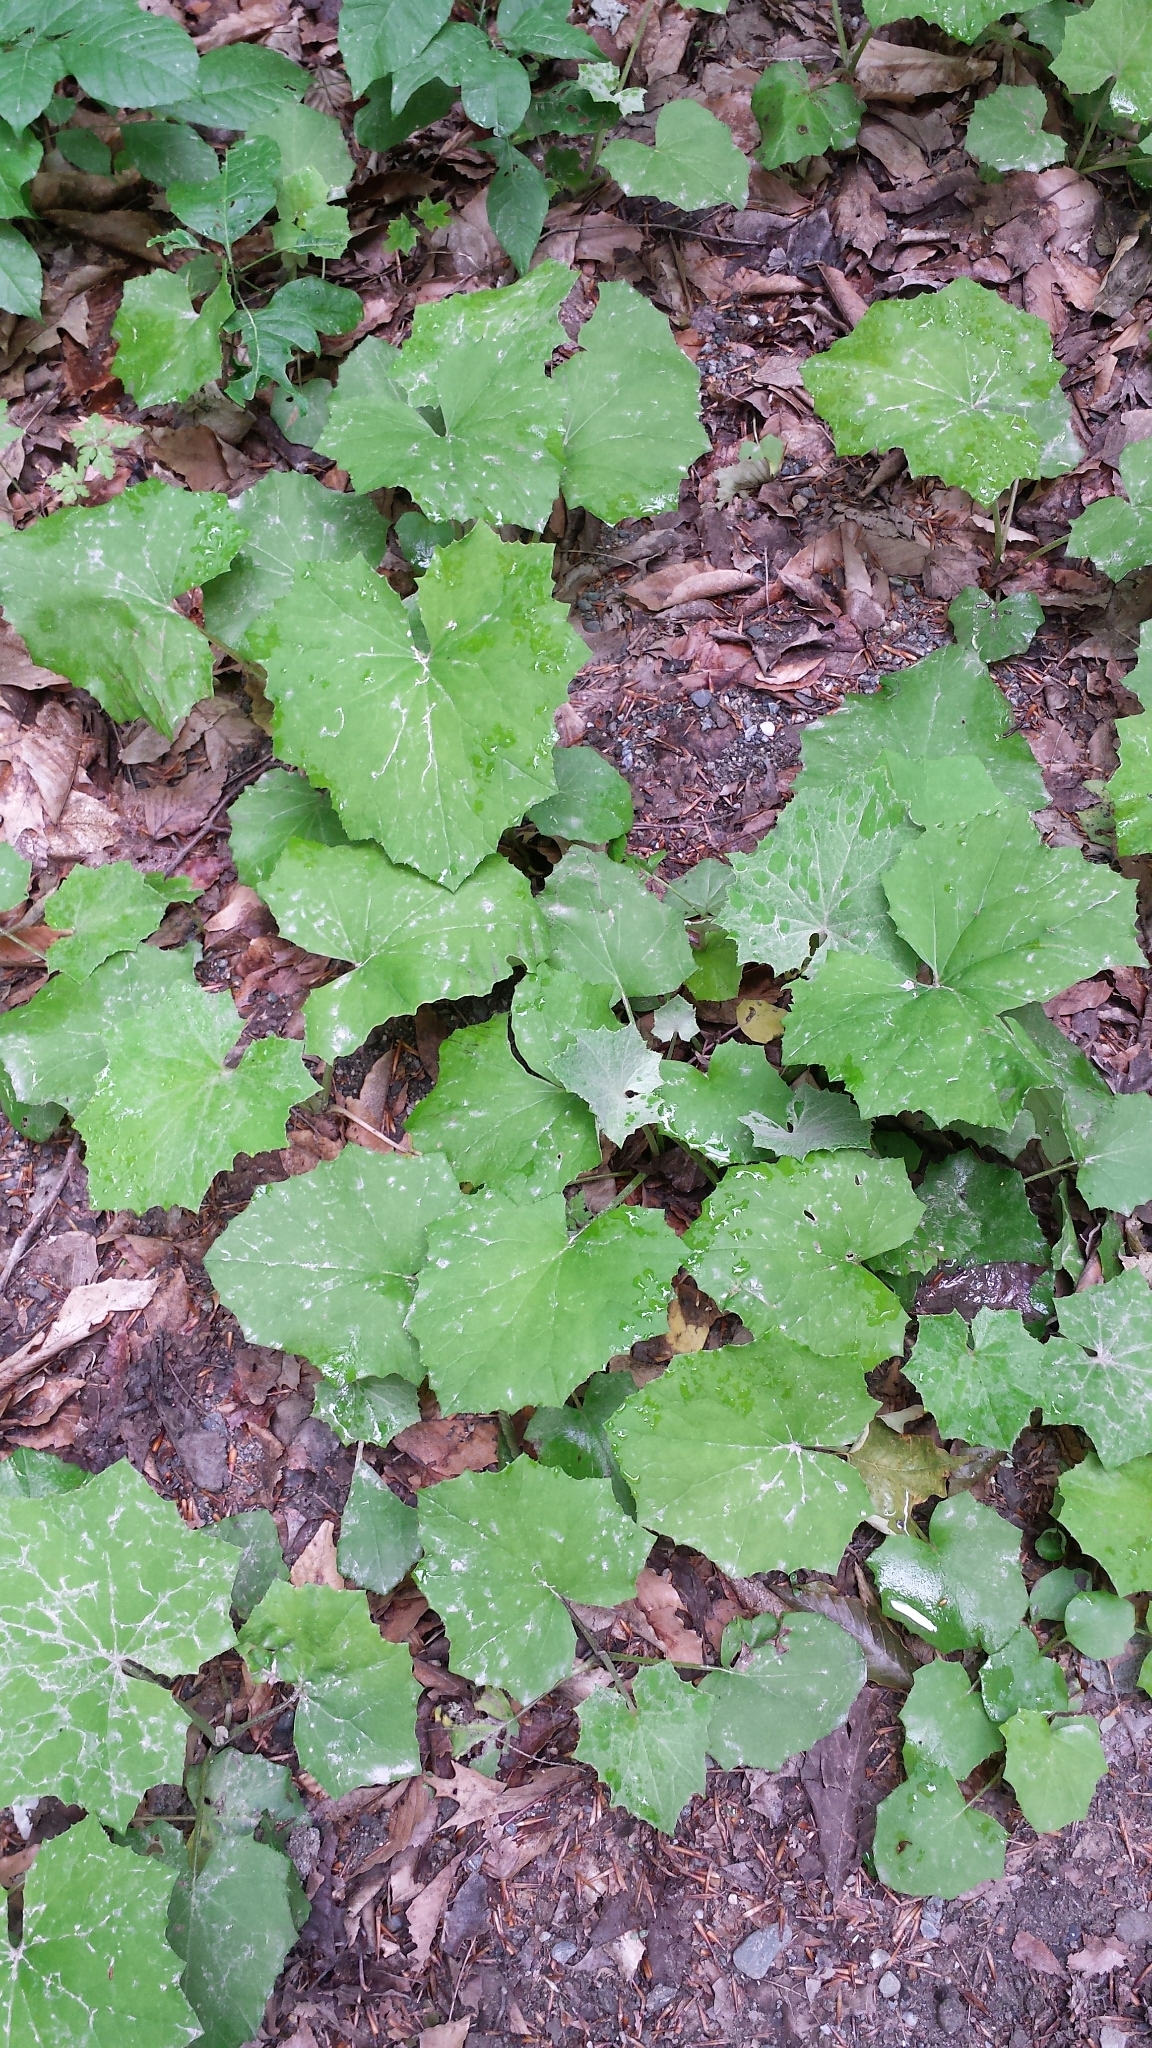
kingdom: Plantae
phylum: Tracheophyta
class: Magnoliopsida
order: Asterales
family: Asteraceae
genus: Tussilago
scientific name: Tussilago farfara
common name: Coltsfoot
